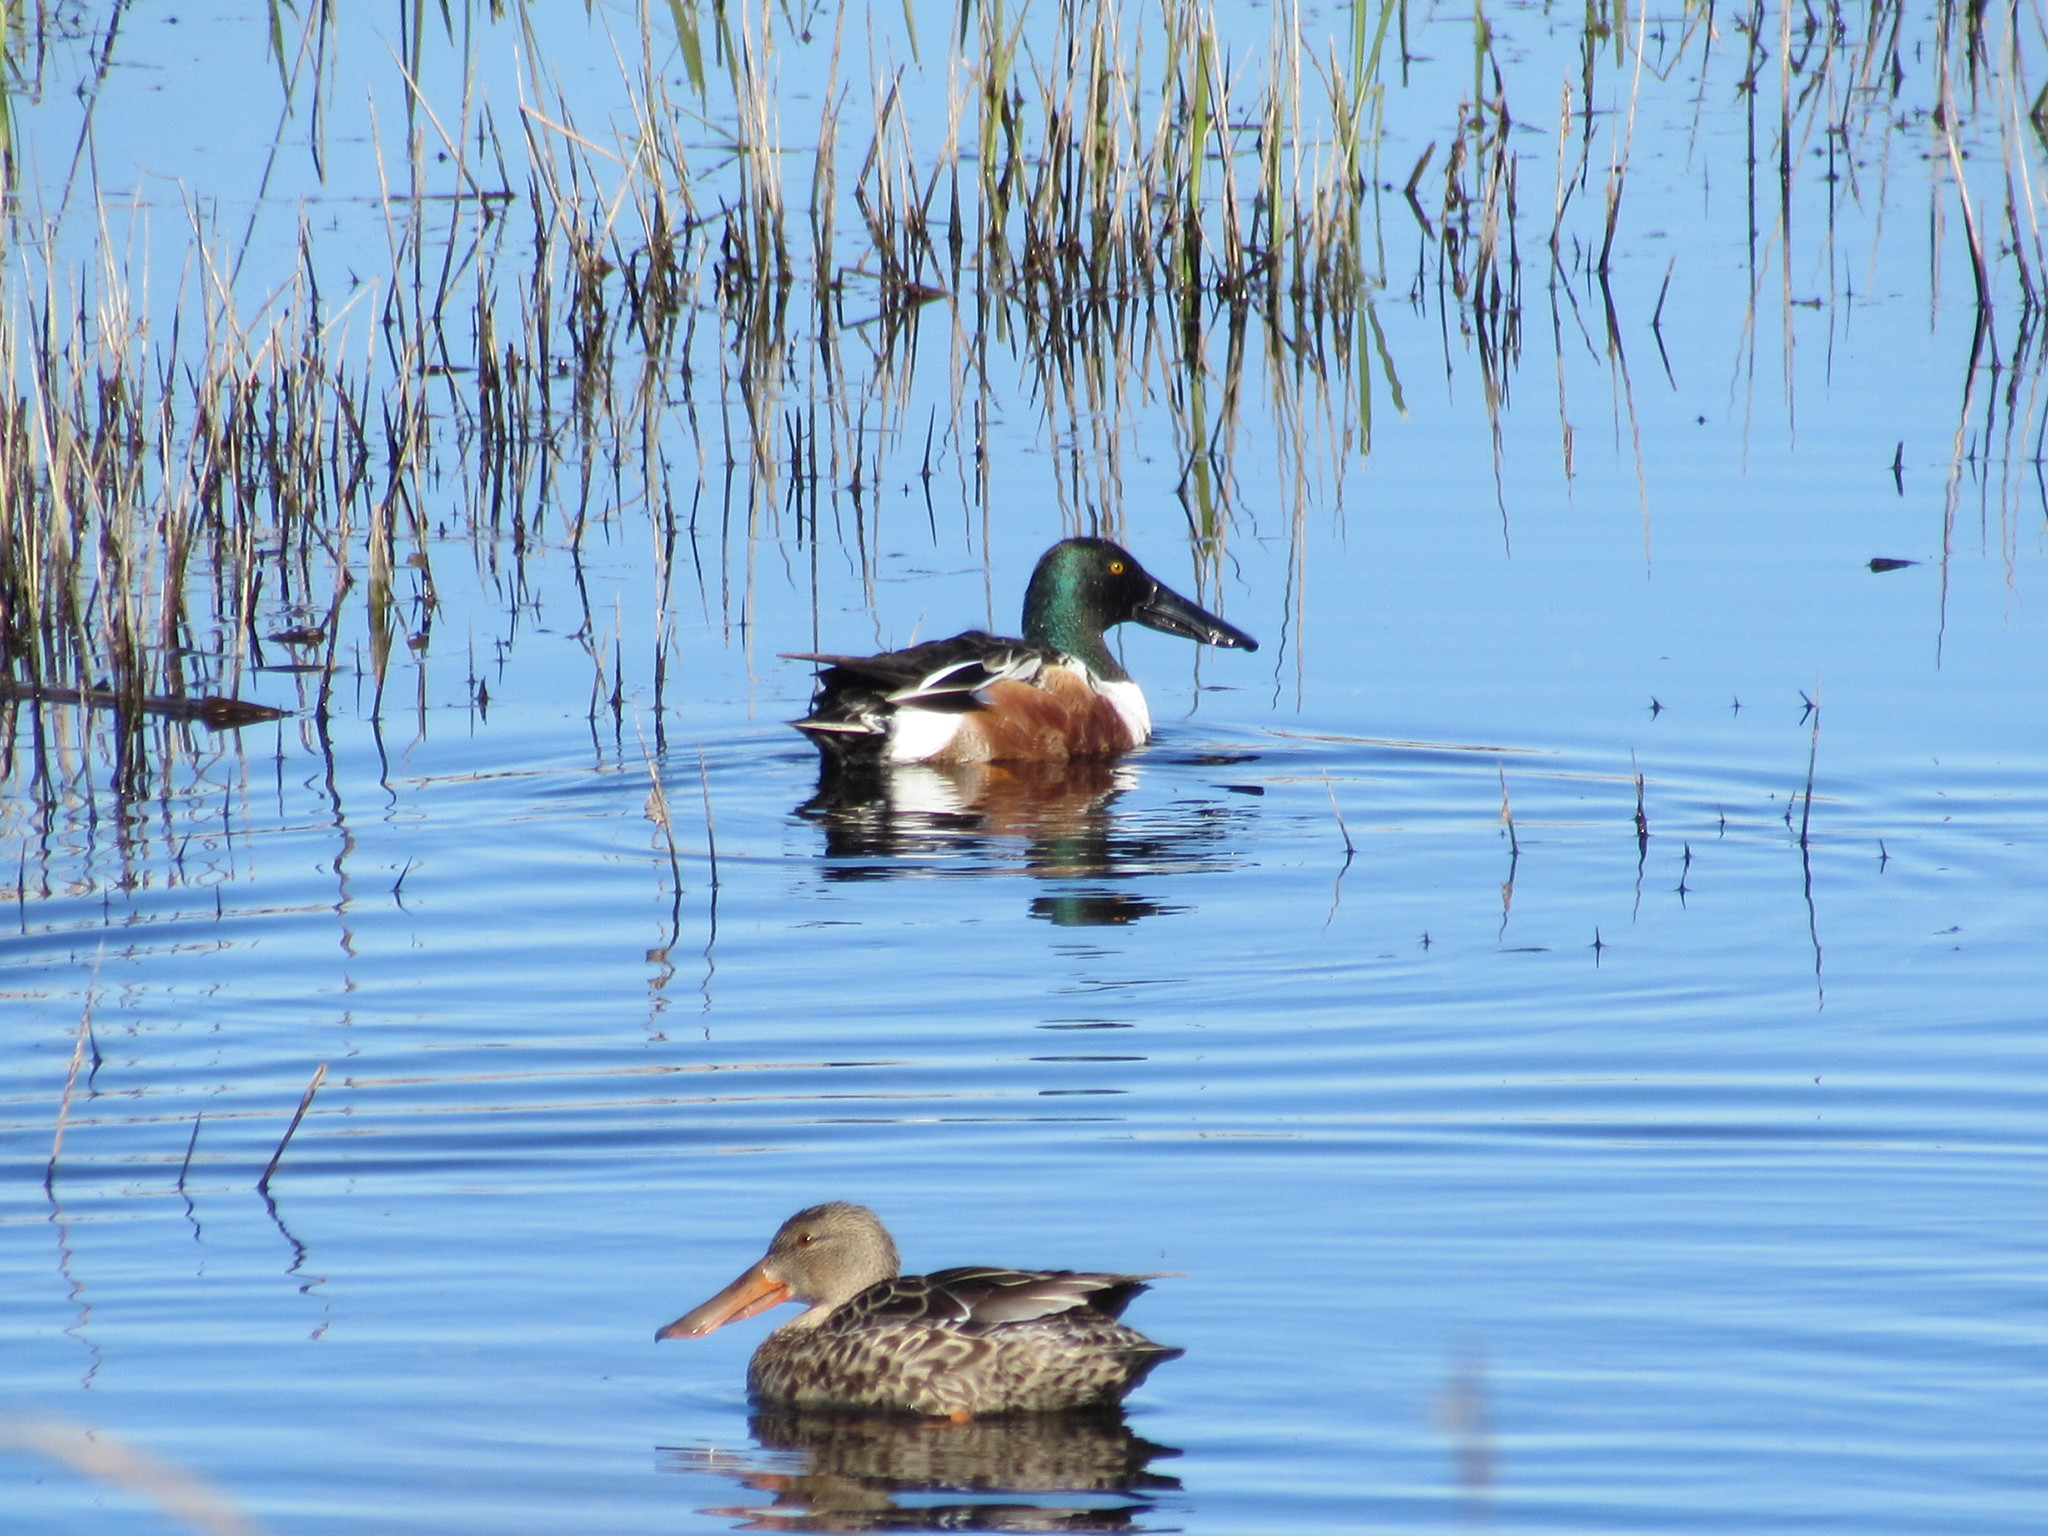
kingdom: Animalia
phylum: Chordata
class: Aves
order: Anseriformes
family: Anatidae
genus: Spatula
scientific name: Spatula clypeata
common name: Northern shoveler
